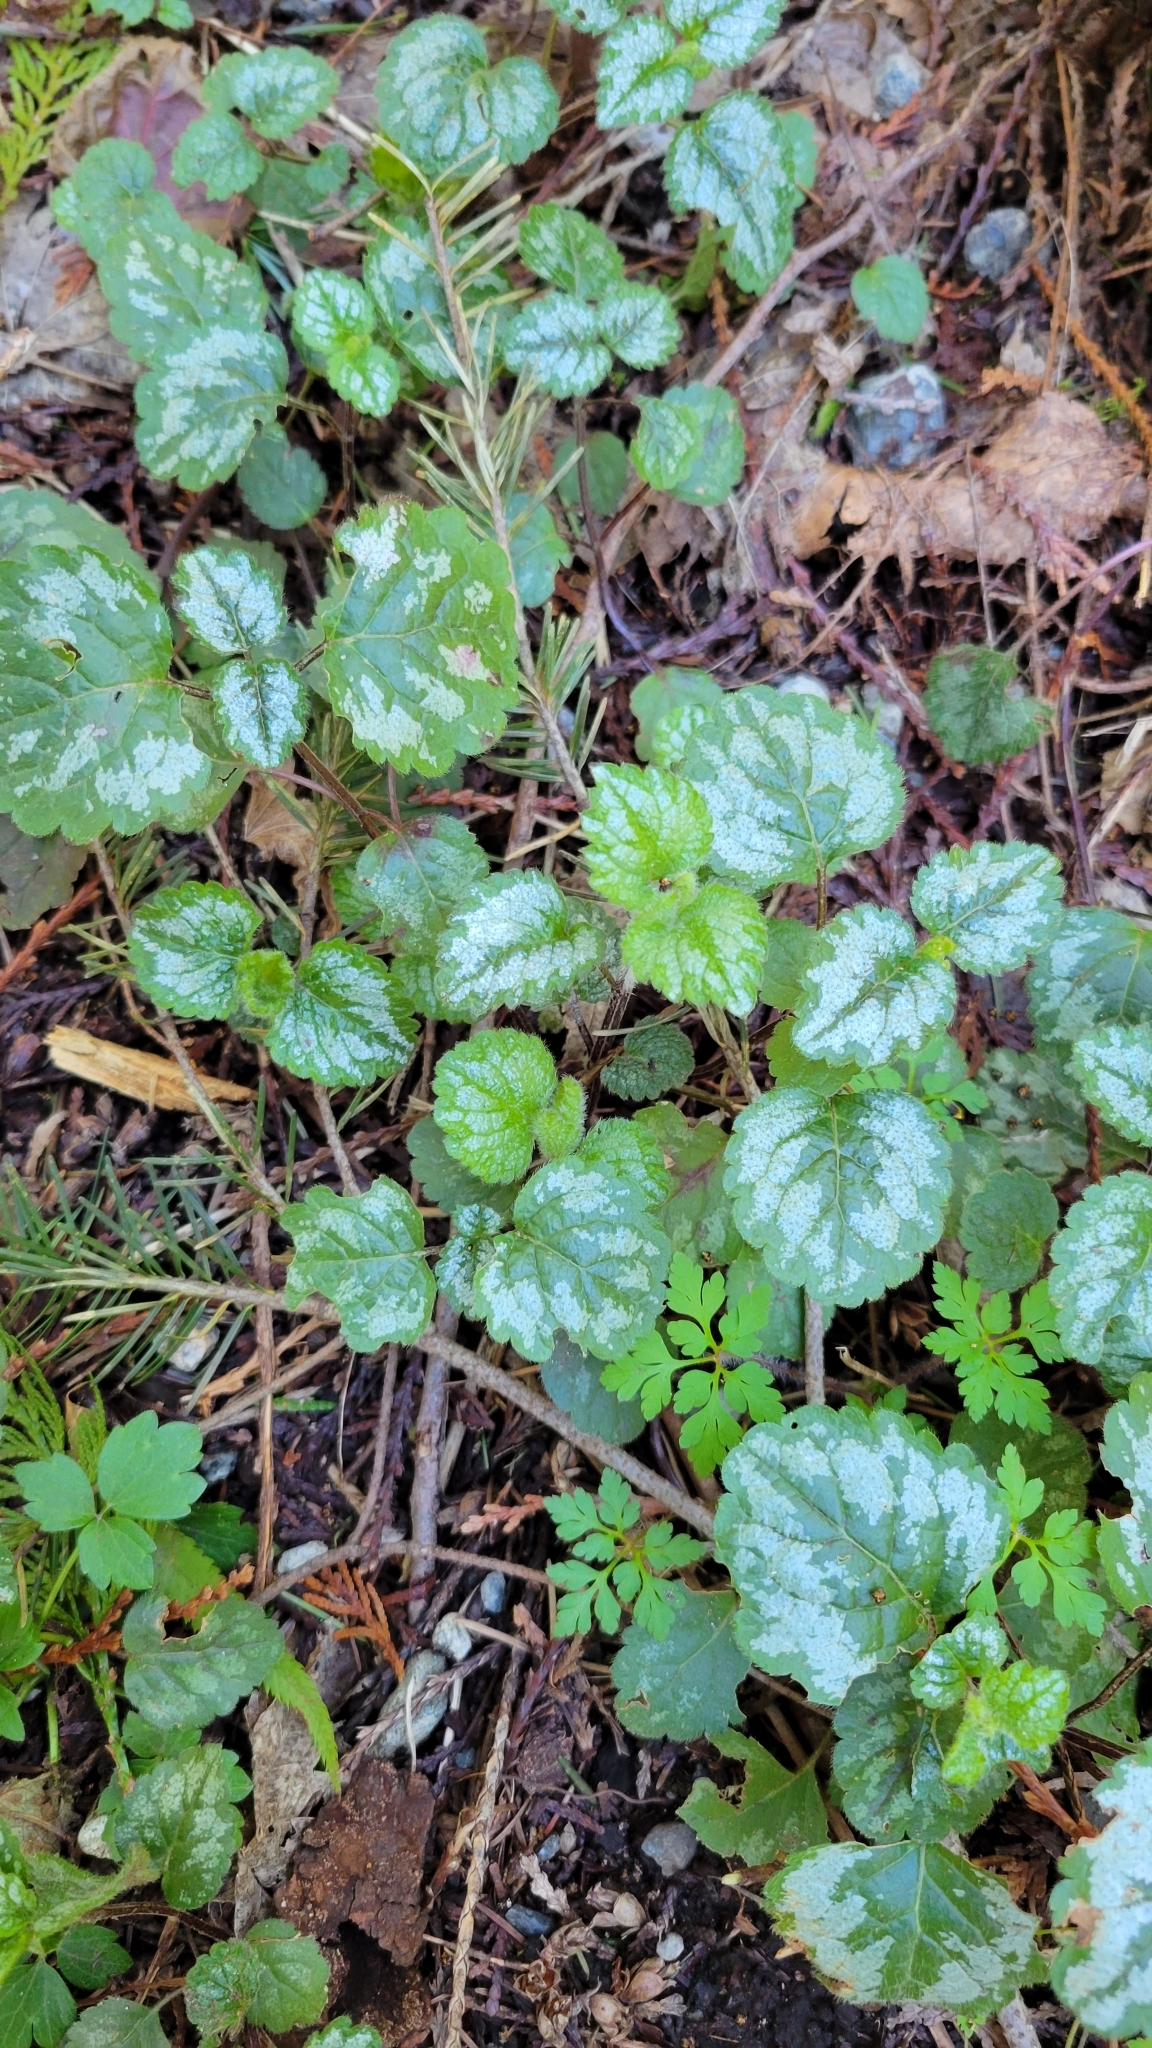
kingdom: Plantae
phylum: Tracheophyta
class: Magnoliopsida
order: Lamiales
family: Lamiaceae
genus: Lamium
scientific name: Lamium galeobdolon
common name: Yellow archangel
